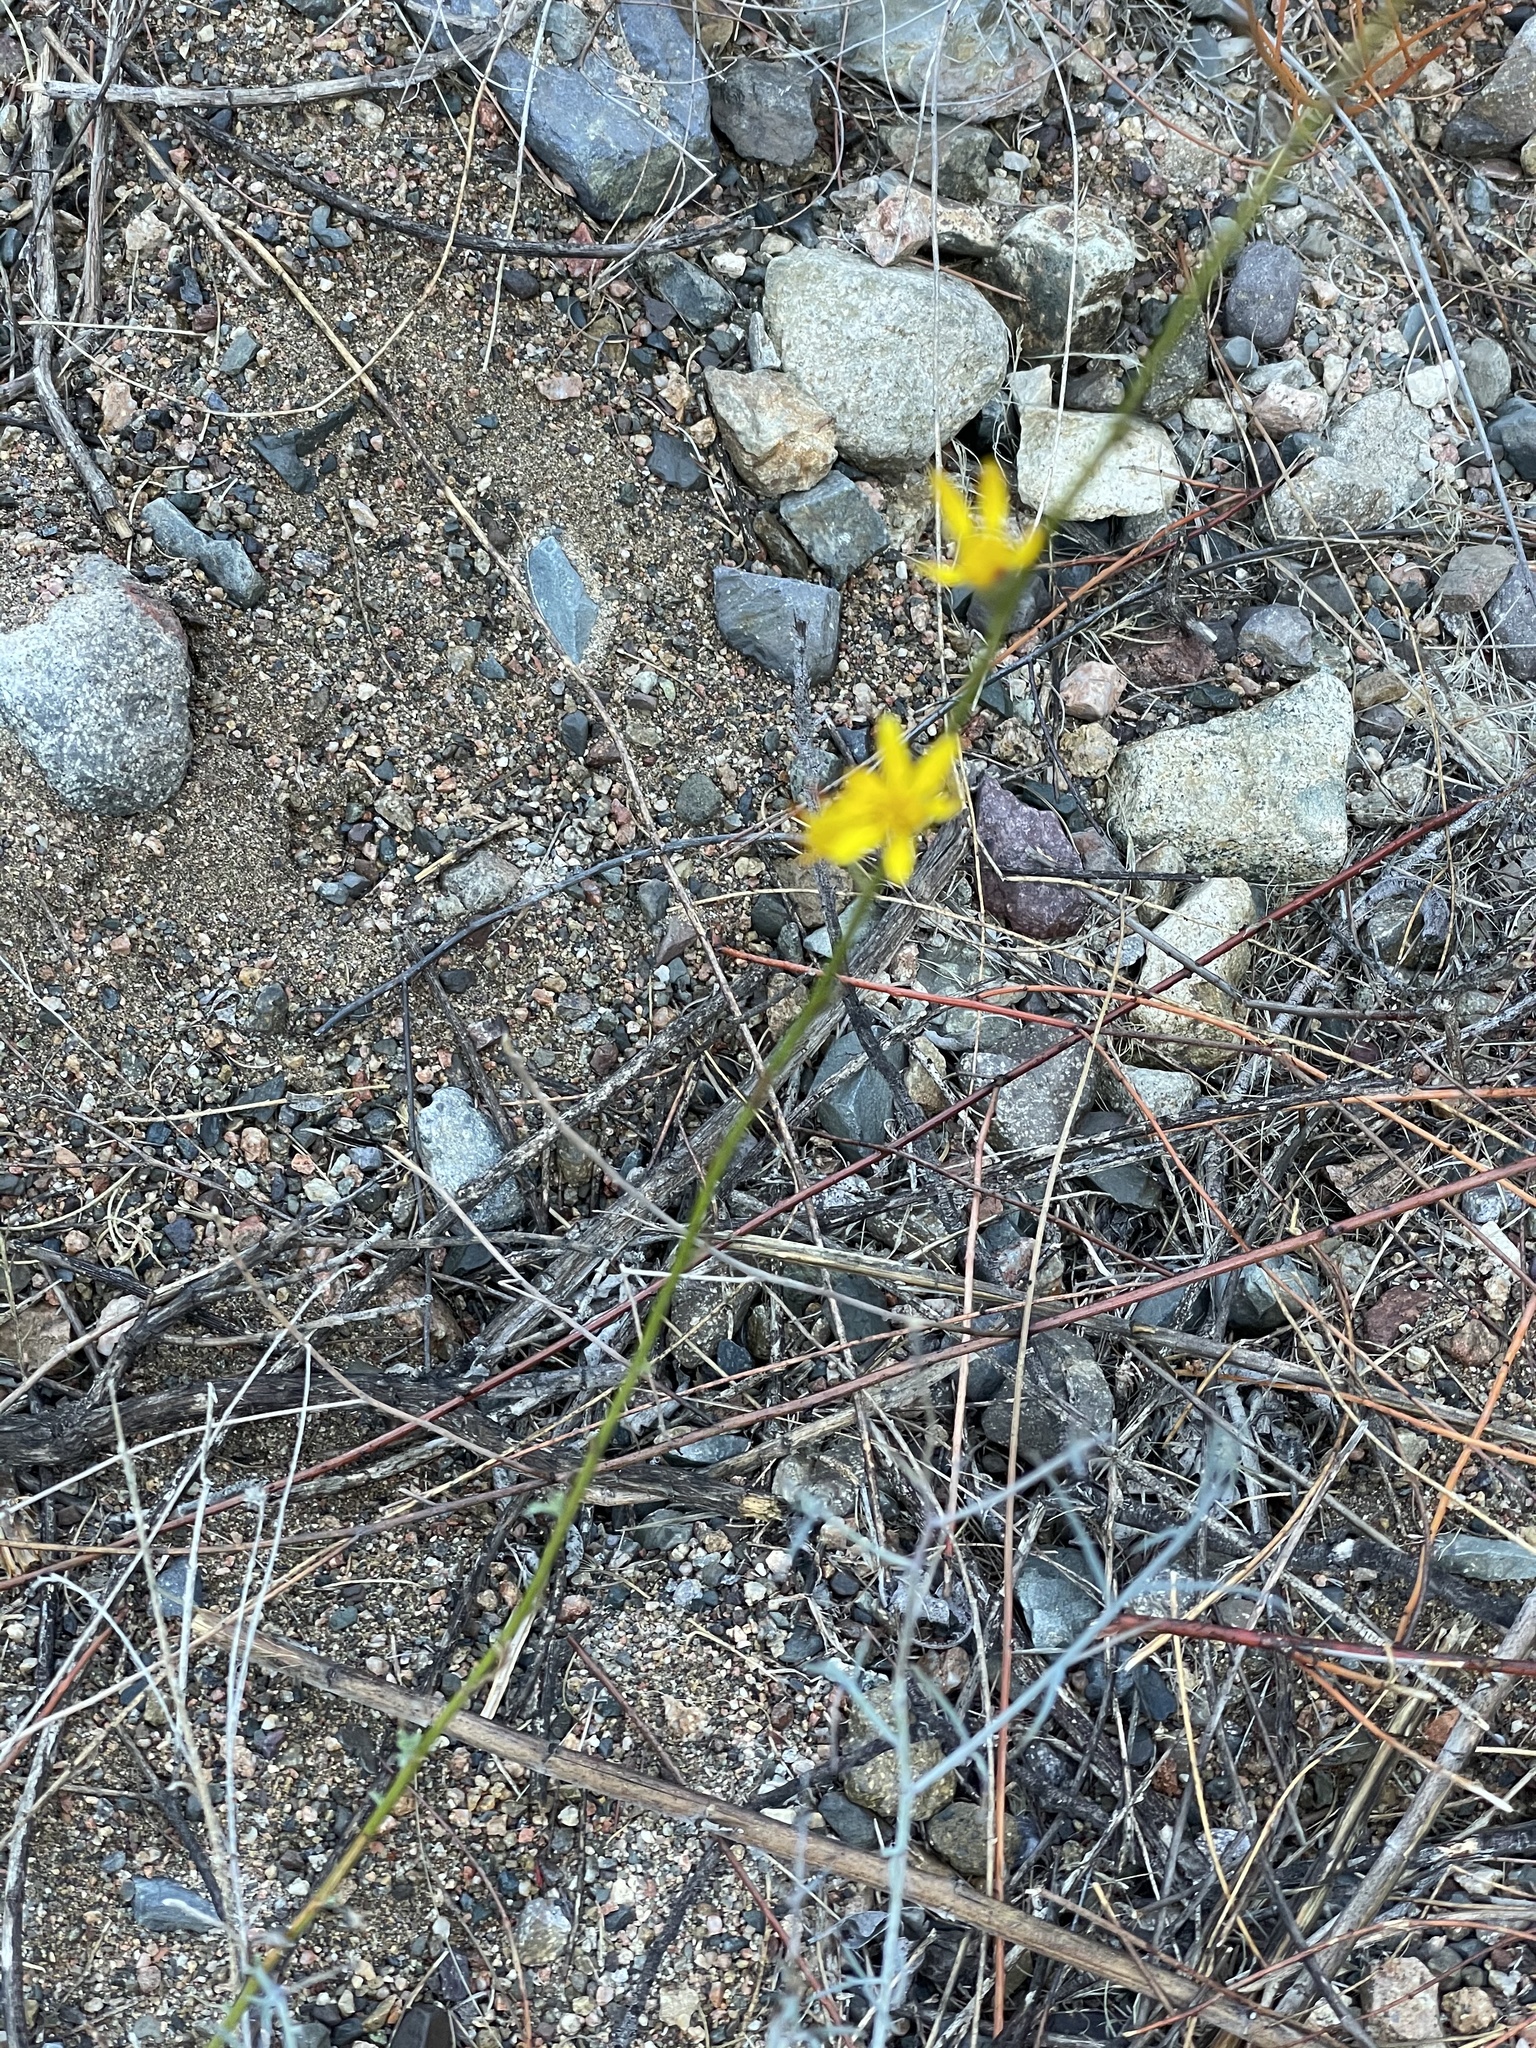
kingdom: Plantae
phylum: Tracheophyta
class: Magnoliopsida
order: Asterales
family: Asteraceae
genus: Xanthisma
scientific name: Xanthisma junceum
